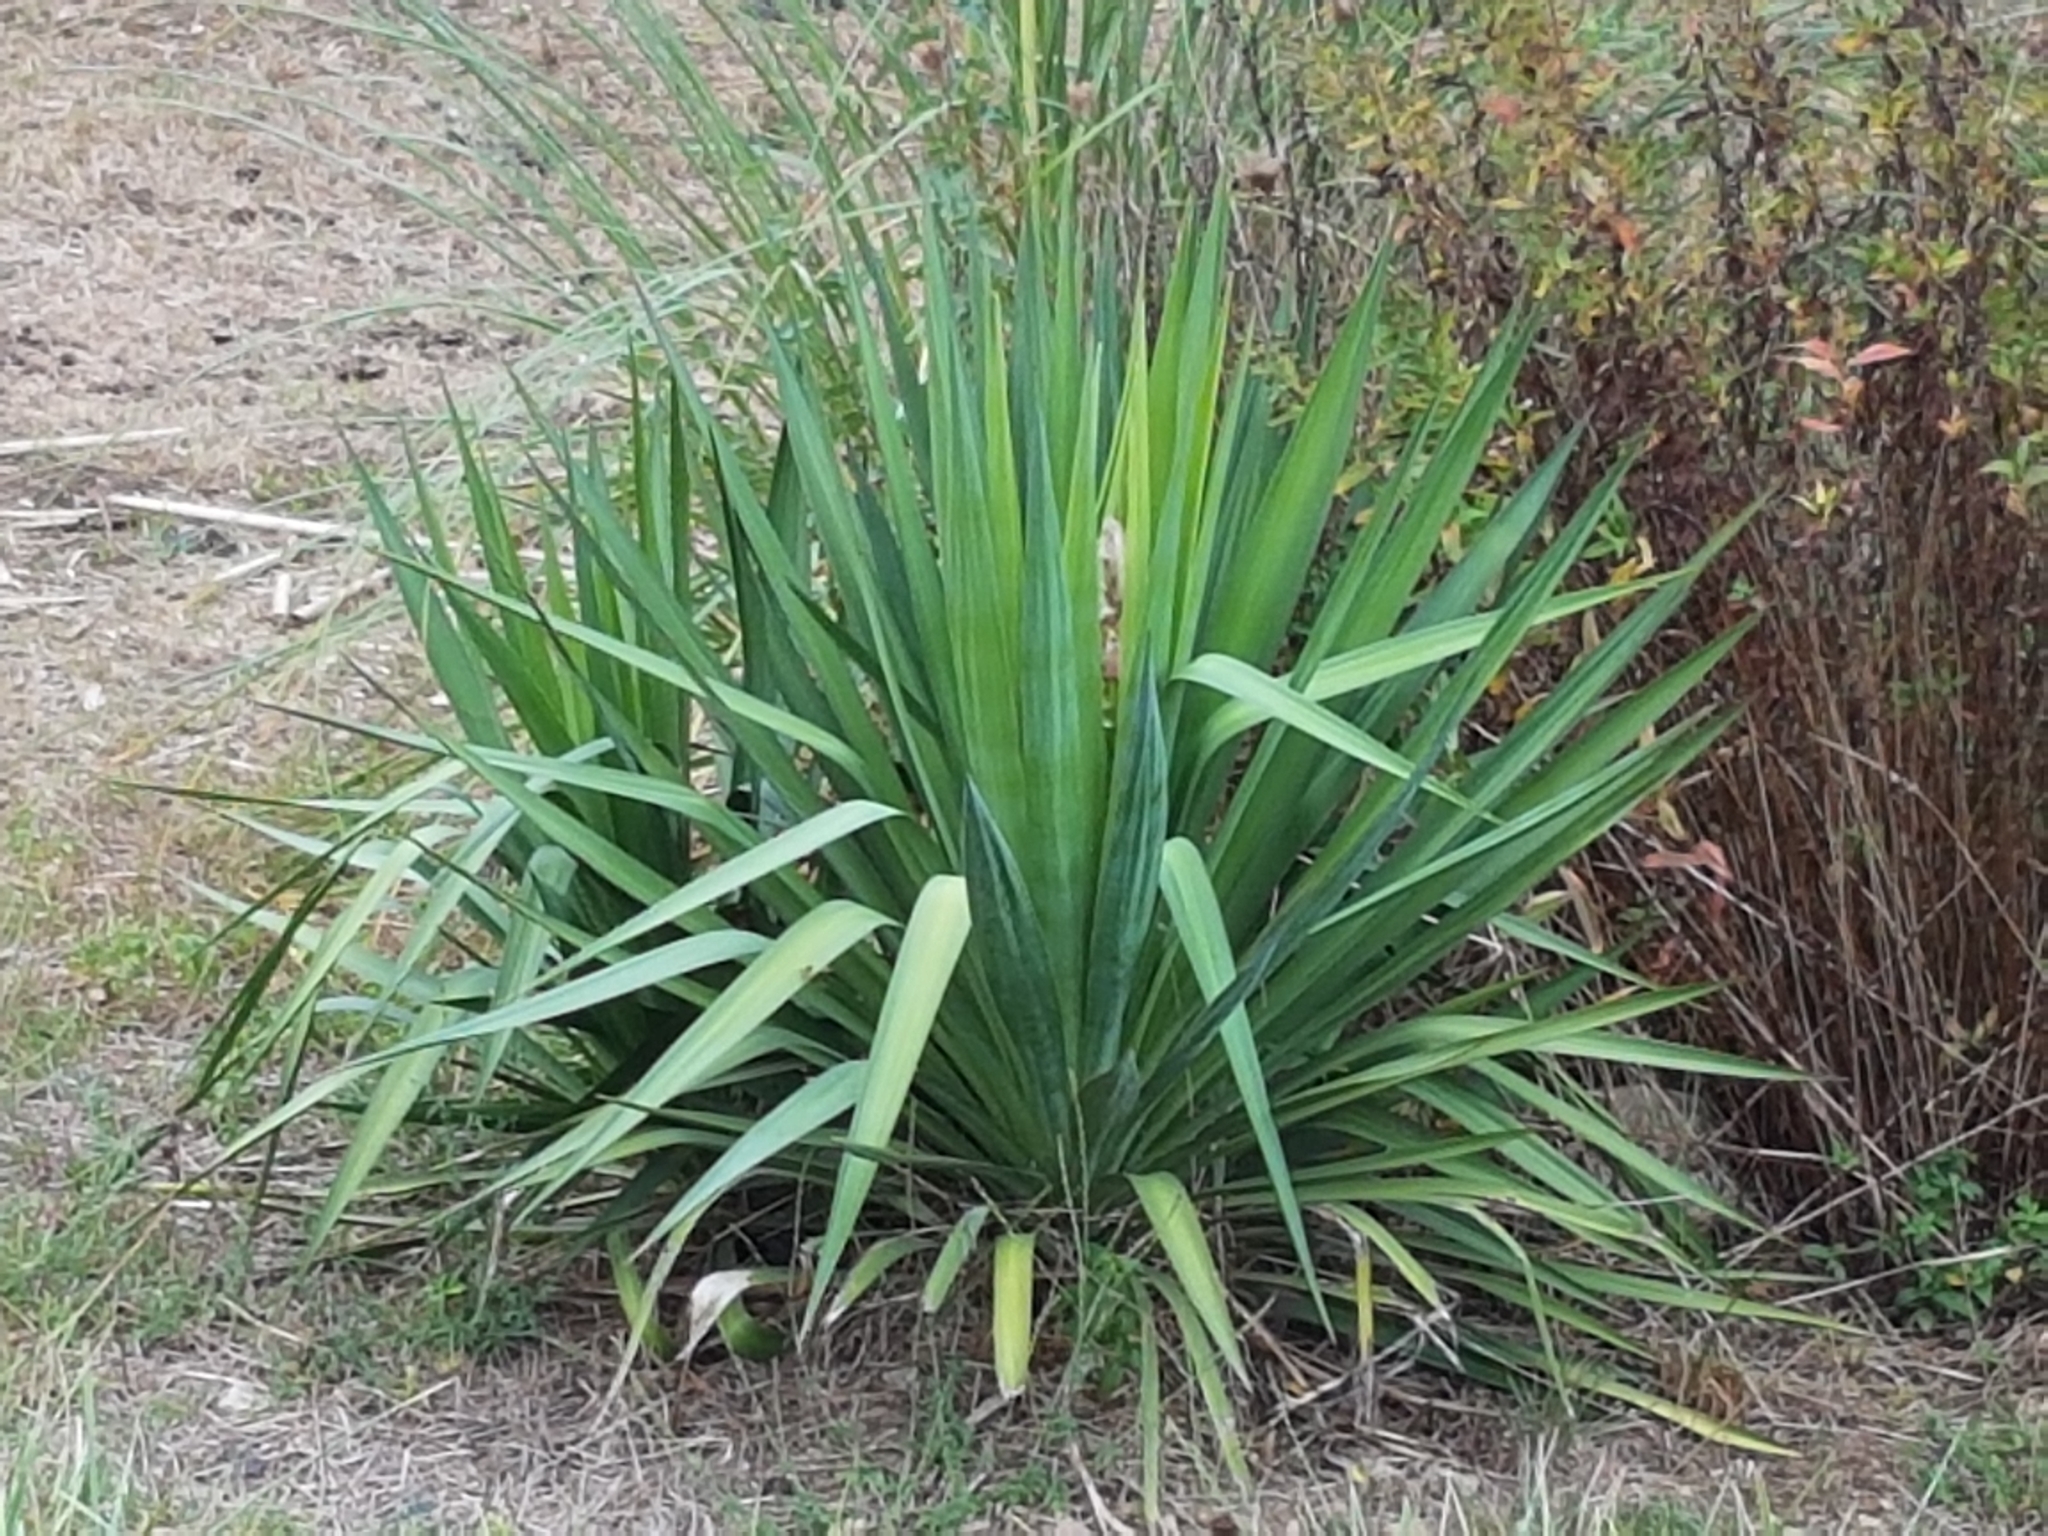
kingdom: Plantae
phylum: Tracheophyta
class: Liliopsida
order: Asparagales
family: Asparagaceae
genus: Yucca
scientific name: Yucca gloriosa
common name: Spanish-dagger
